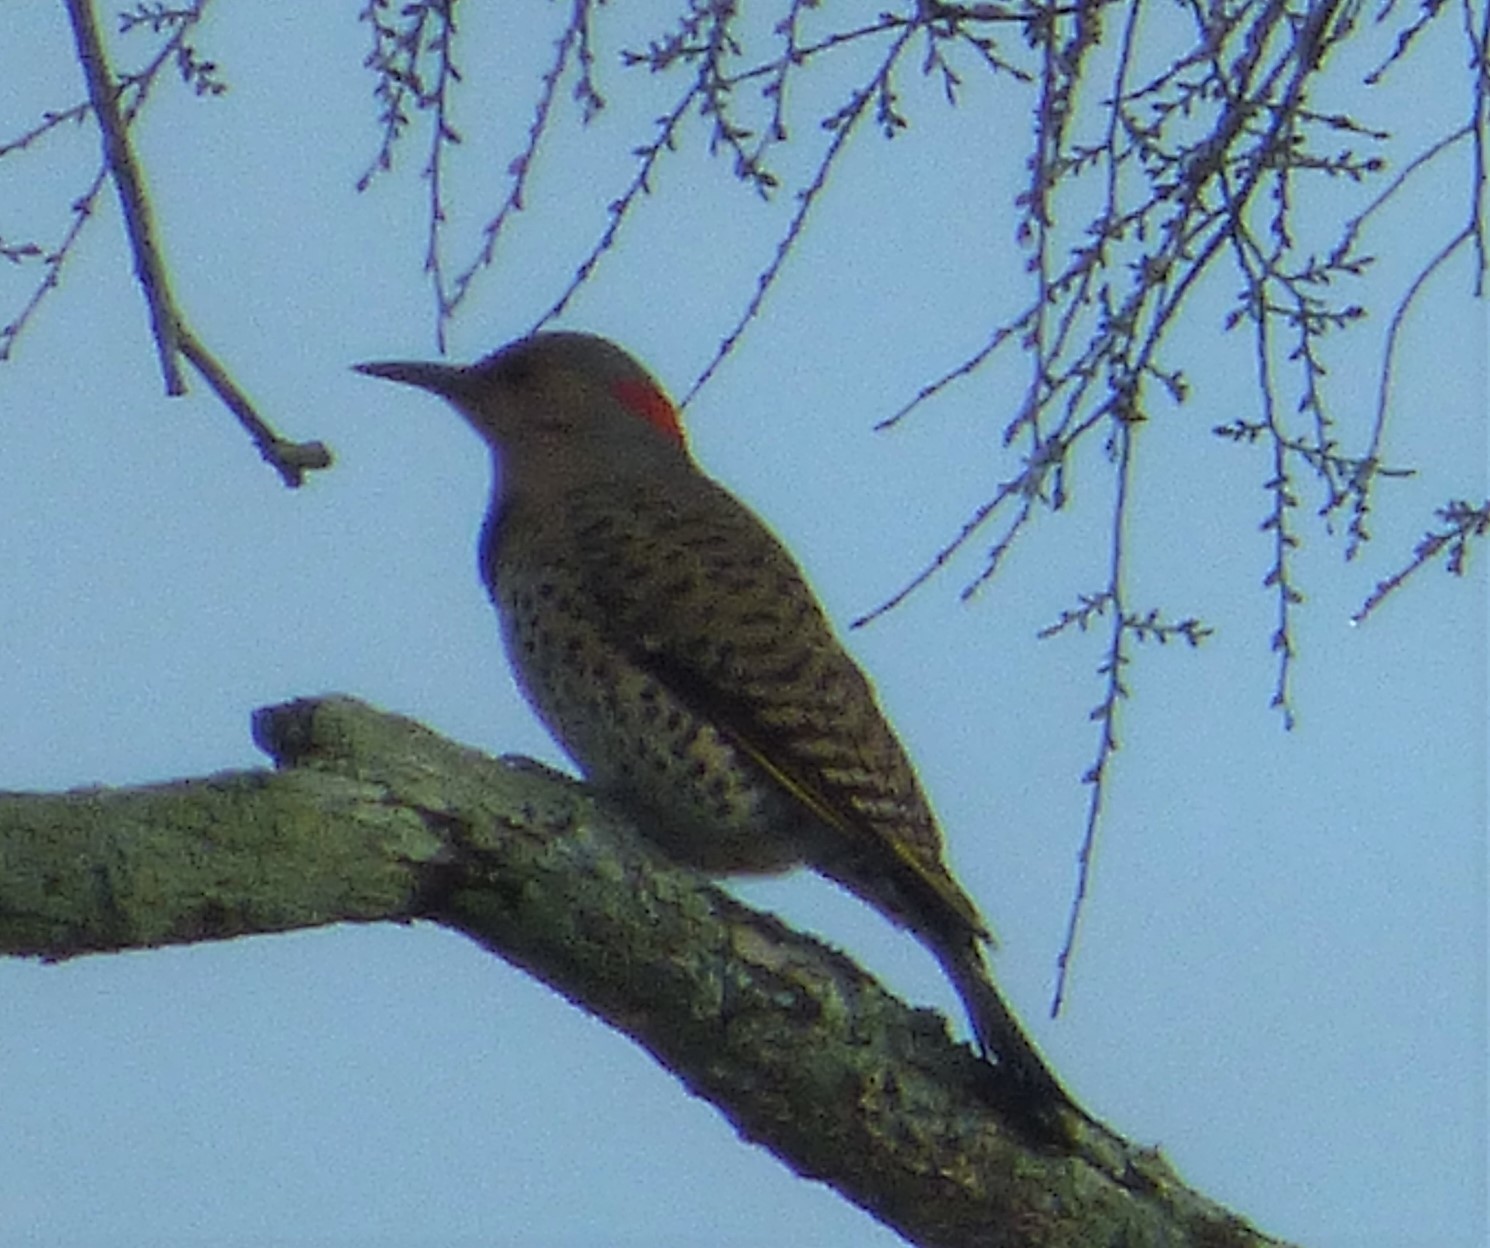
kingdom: Animalia
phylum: Chordata
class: Aves
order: Piciformes
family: Picidae
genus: Colaptes
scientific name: Colaptes auratus
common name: Northern flicker
